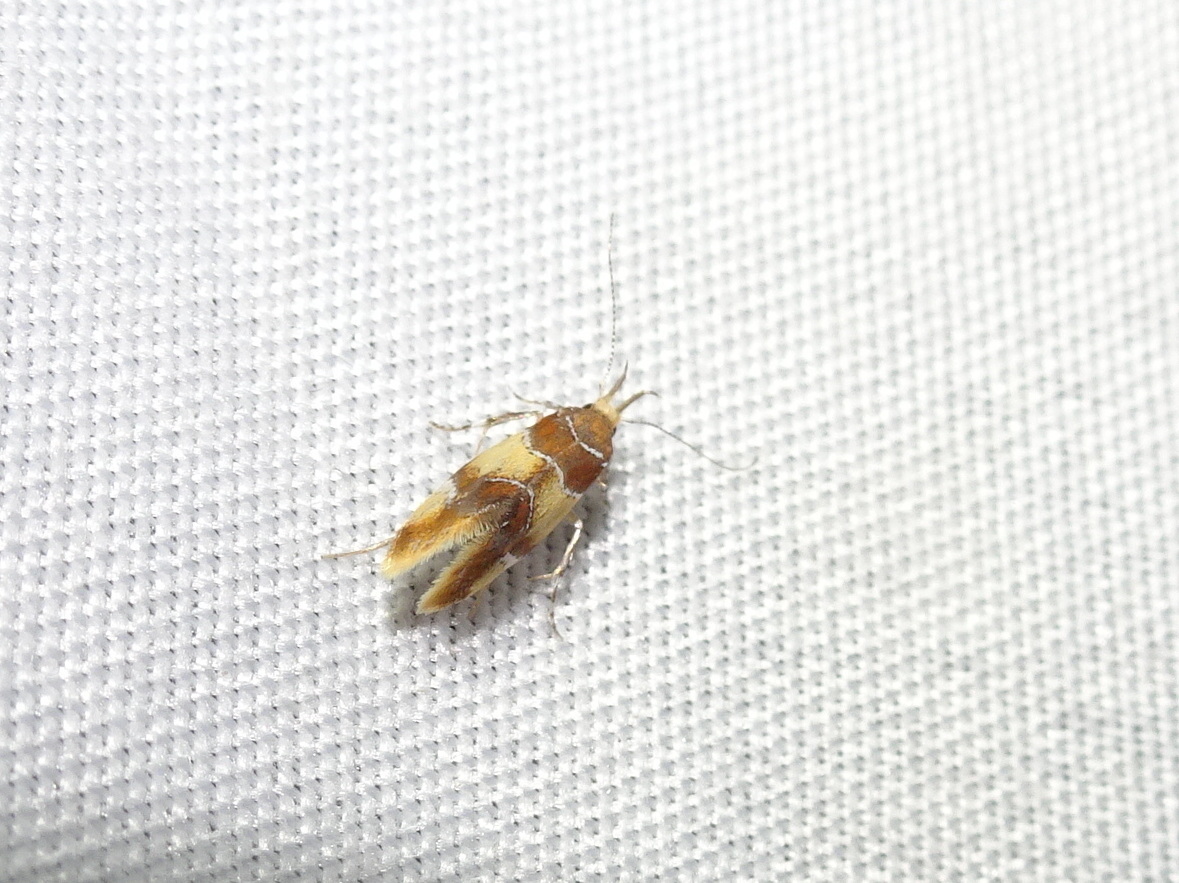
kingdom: Animalia
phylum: Arthropoda
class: Insecta
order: Lepidoptera
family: Oecophoridae
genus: Callima
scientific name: Callima argenticinctella
